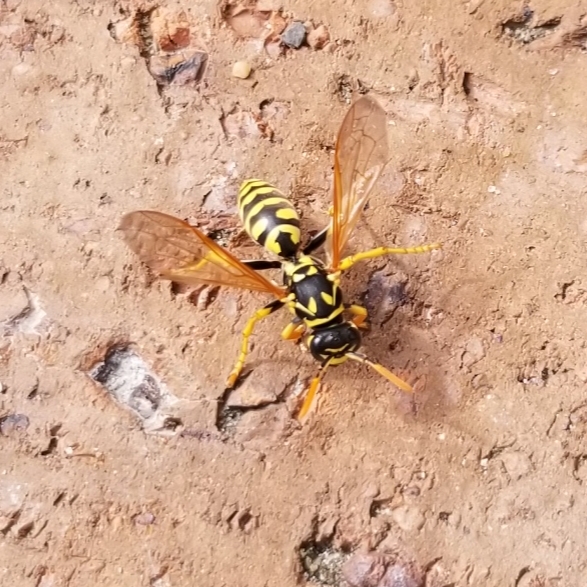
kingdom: Animalia
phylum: Arthropoda
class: Insecta
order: Hymenoptera
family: Eumenidae
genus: Polistes
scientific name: Polistes dominula
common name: Paper wasp
